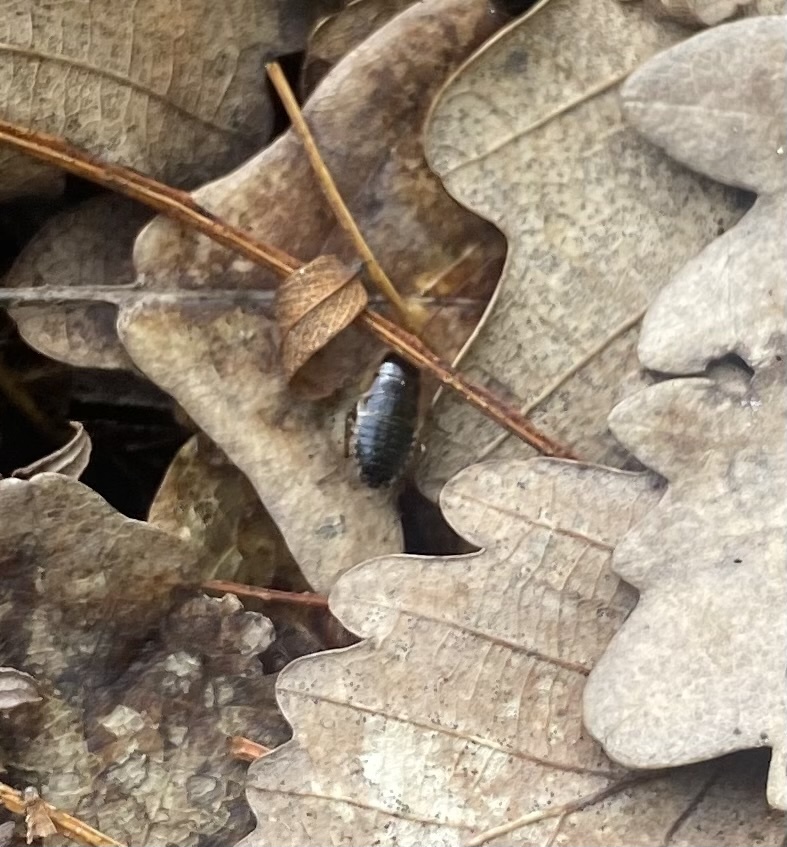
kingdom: Animalia
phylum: Arthropoda
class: Insecta
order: Blattodea
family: Ectobiidae
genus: Ectobius
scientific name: Ectobius sylvestris
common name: Forest cockroach
